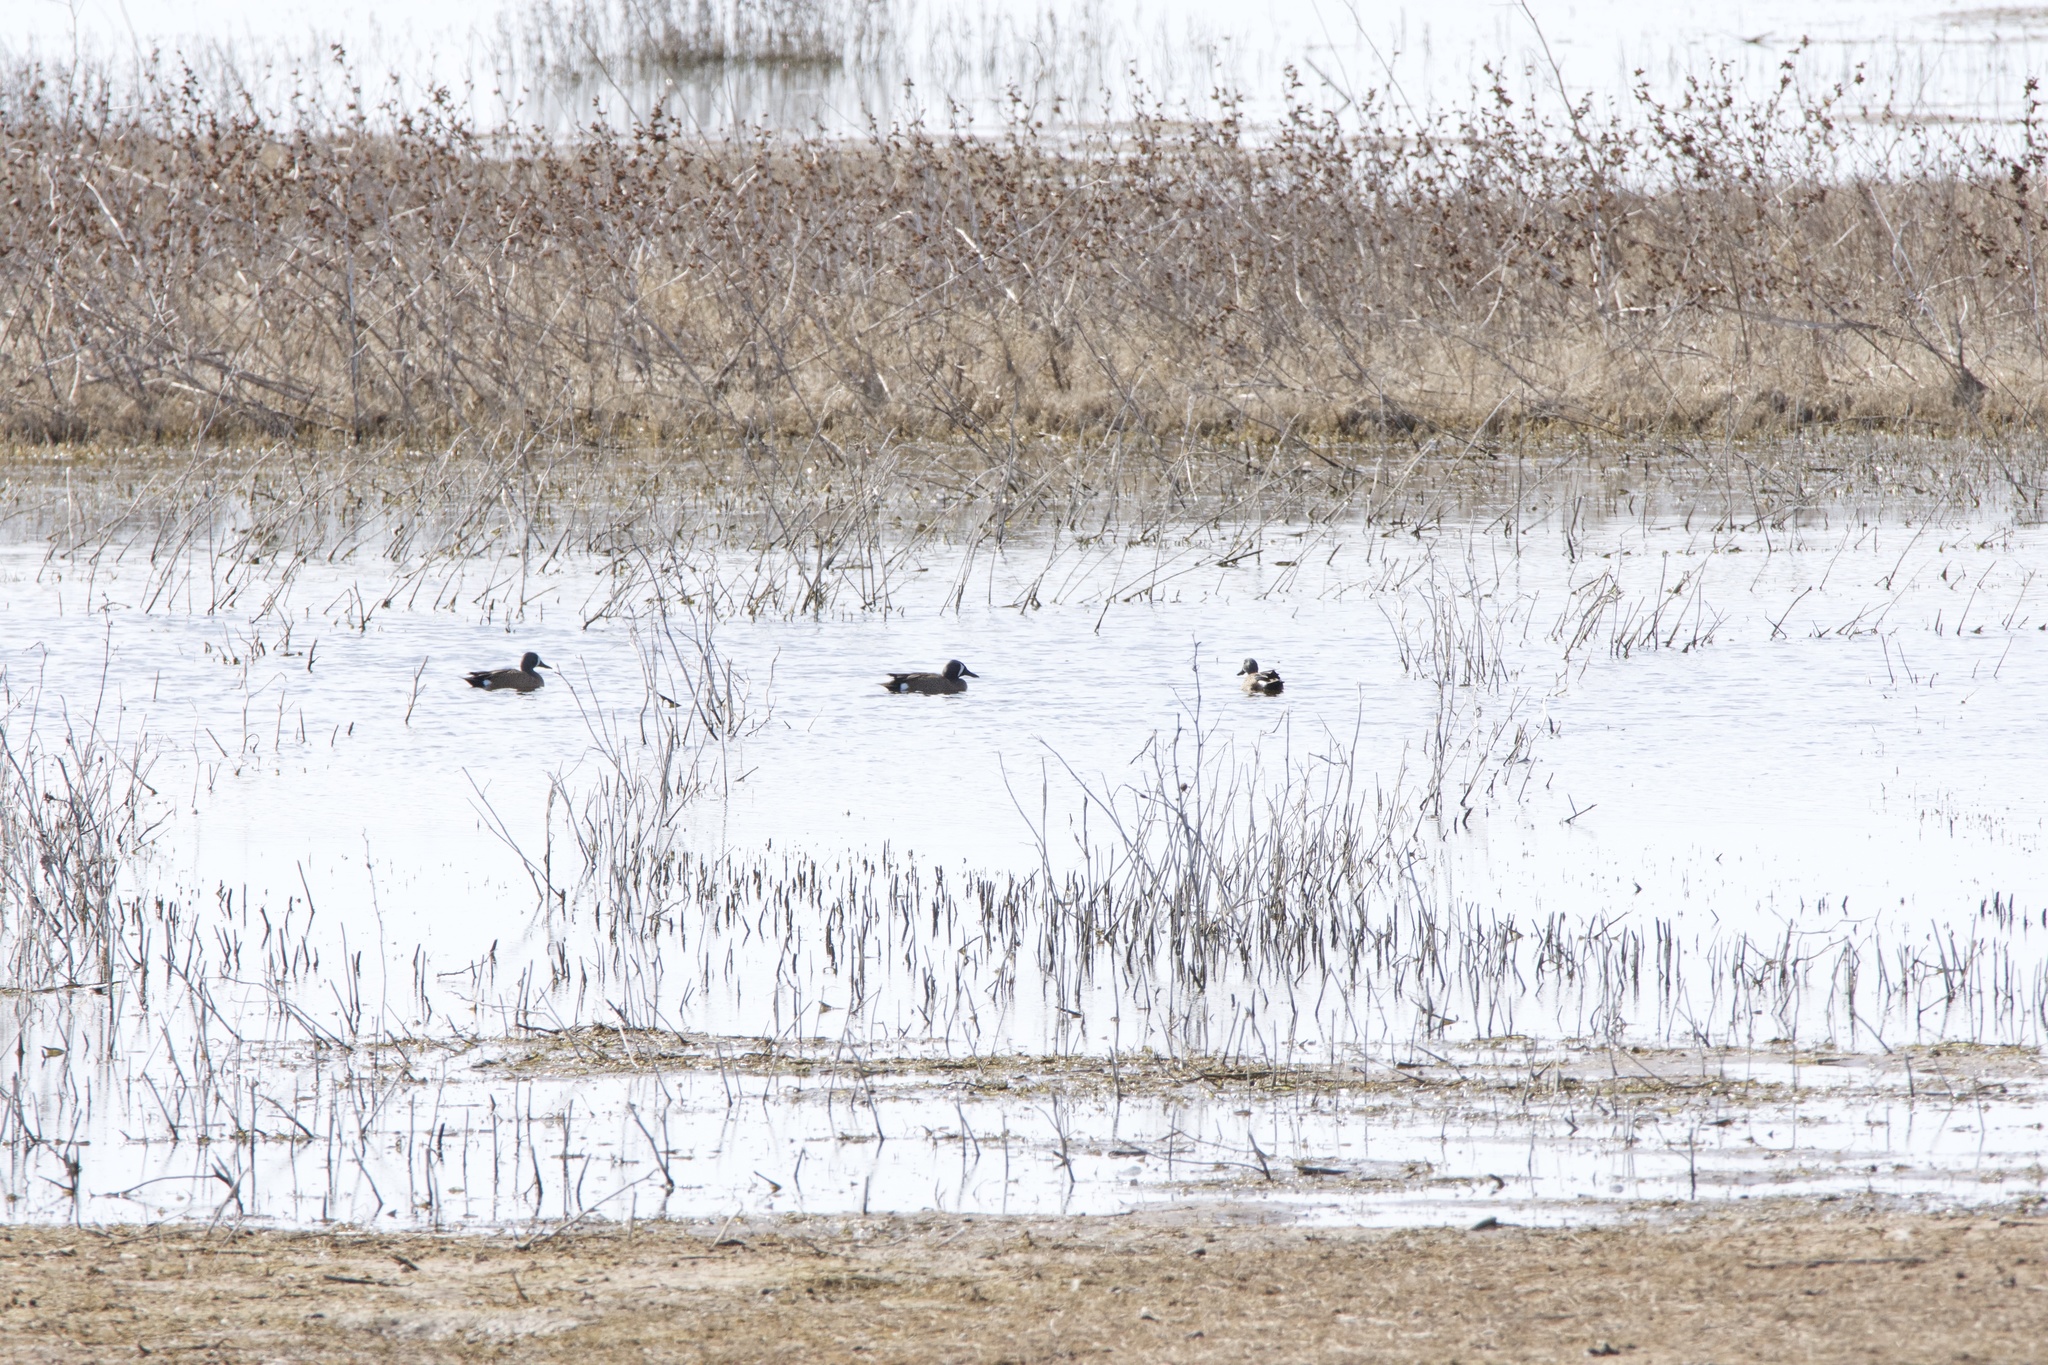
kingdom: Animalia
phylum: Chordata
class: Aves
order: Anseriformes
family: Anatidae
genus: Spatula
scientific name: Spatula discors
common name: Blue-winged teal
